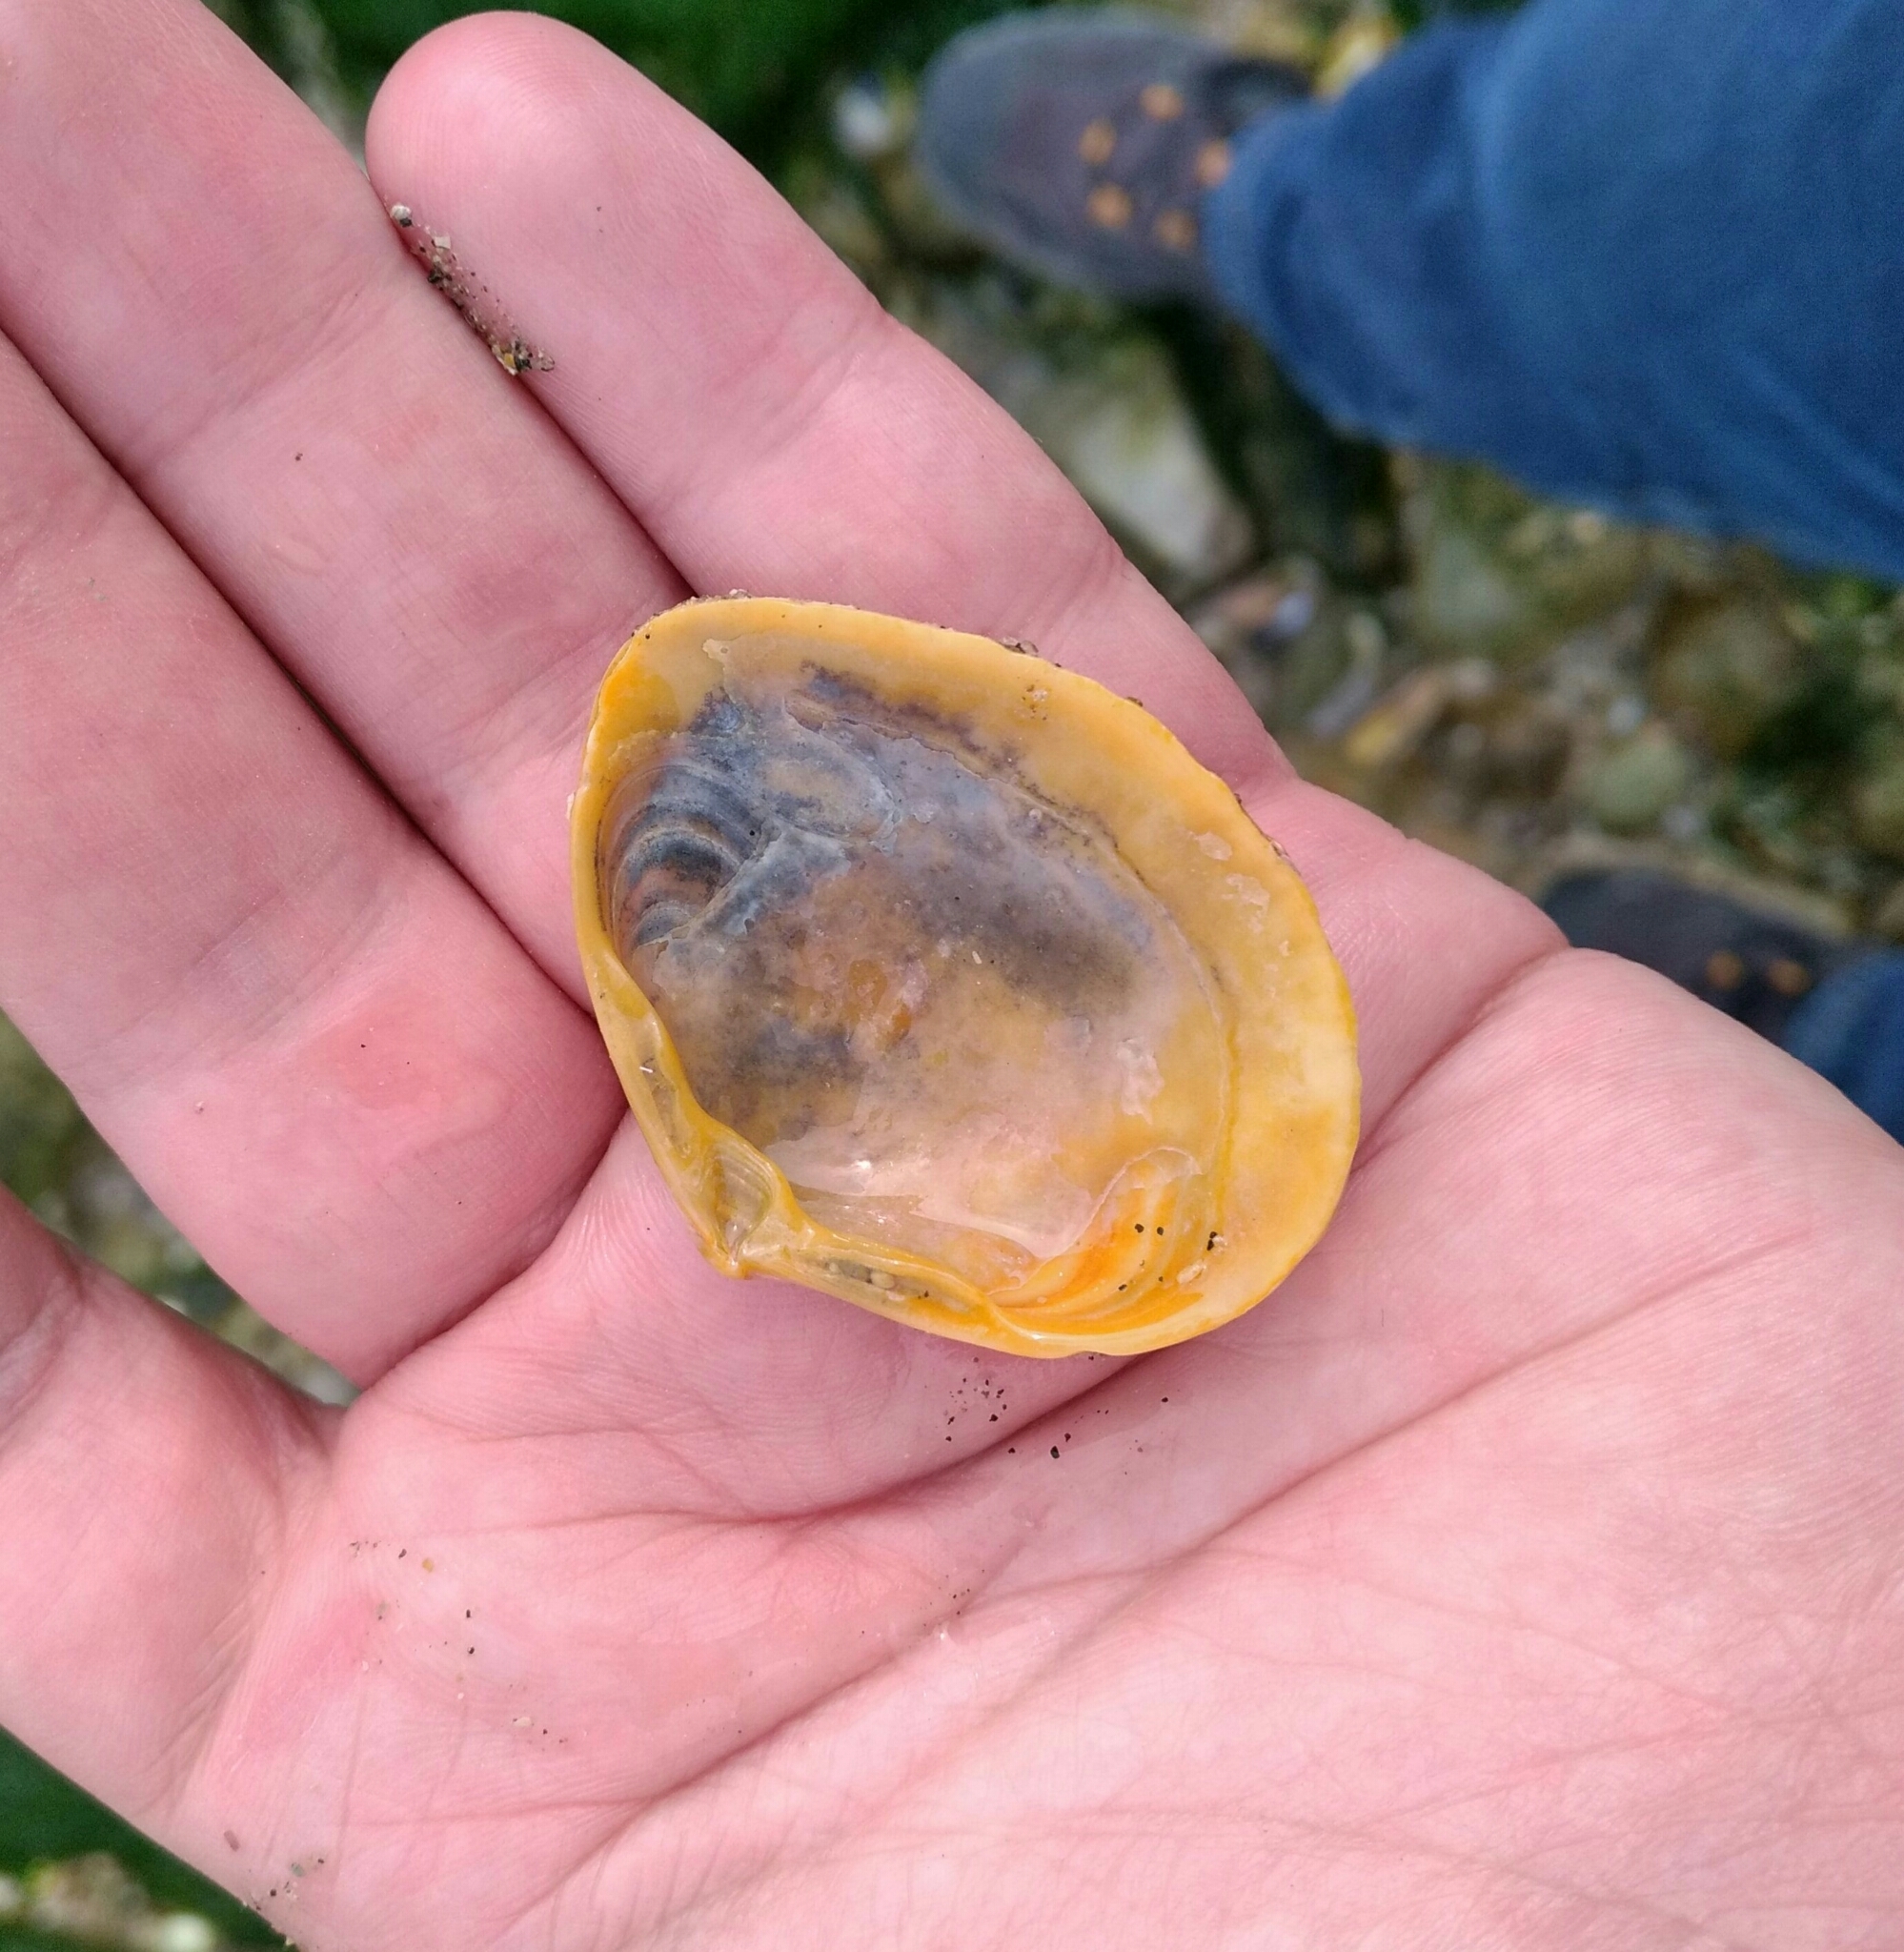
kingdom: Animalia
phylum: Mollusca
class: Bivalvia
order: Venerida
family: Mactridae
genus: Spisula
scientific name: Spisula solida
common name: Thick trough shell
